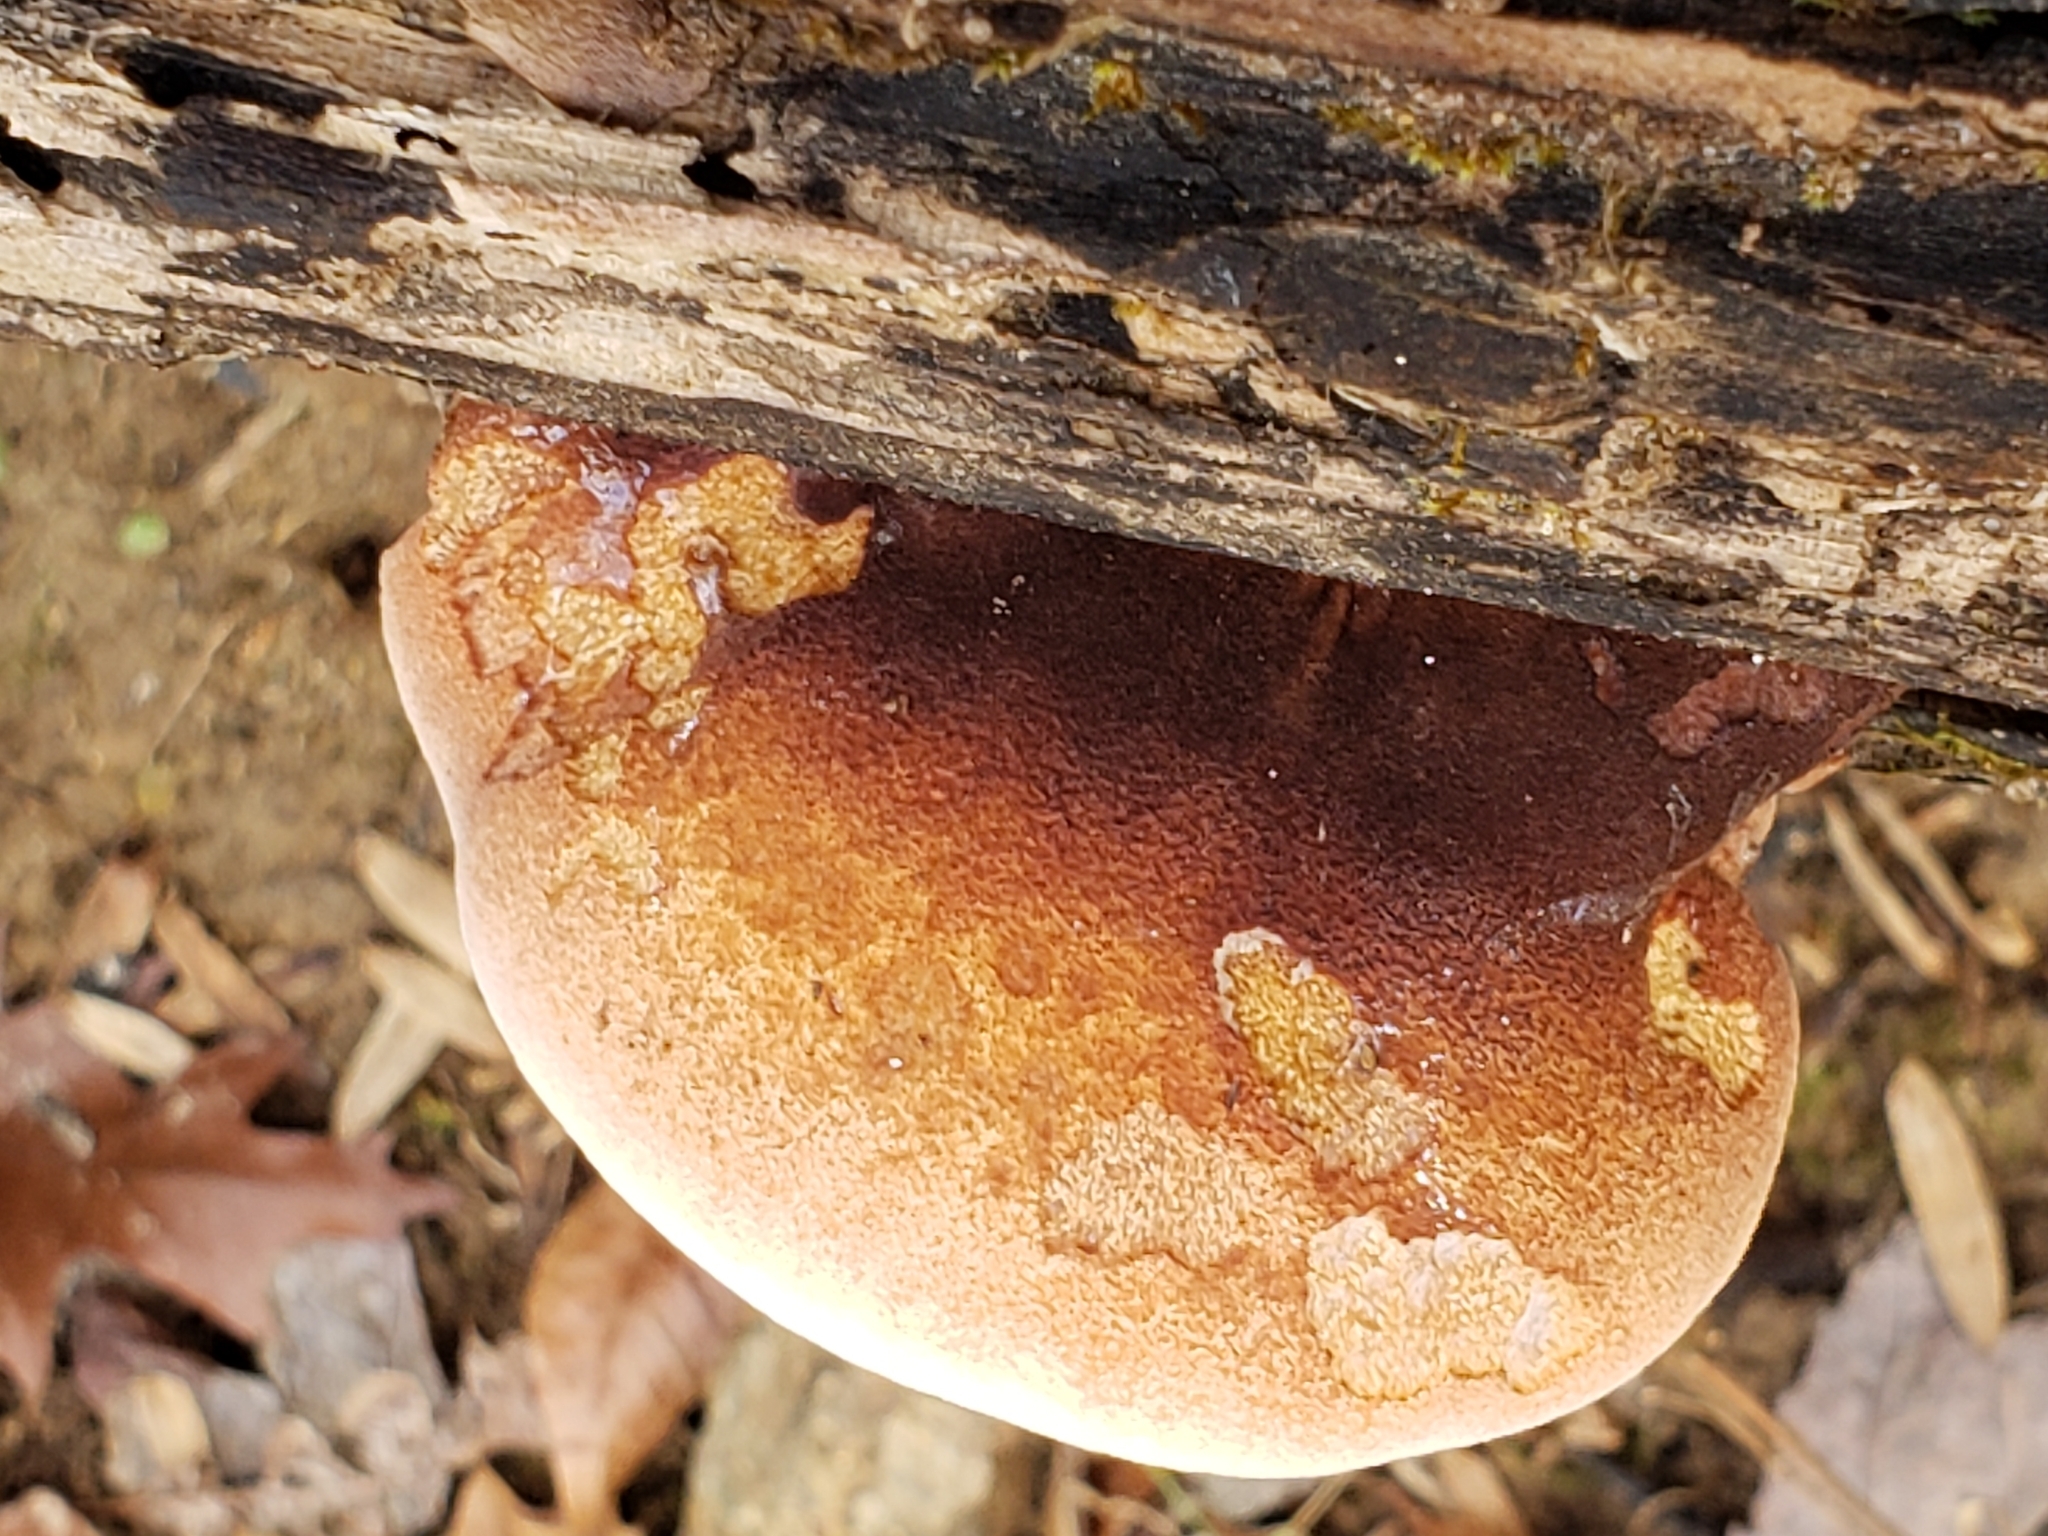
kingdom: Fungi
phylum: Basidiomycota
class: Agaricomycetes
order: Polyporales
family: Ischnodermataceae
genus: Ischnoderma
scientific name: Ischnoderma resinosum
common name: Resinous polypore
